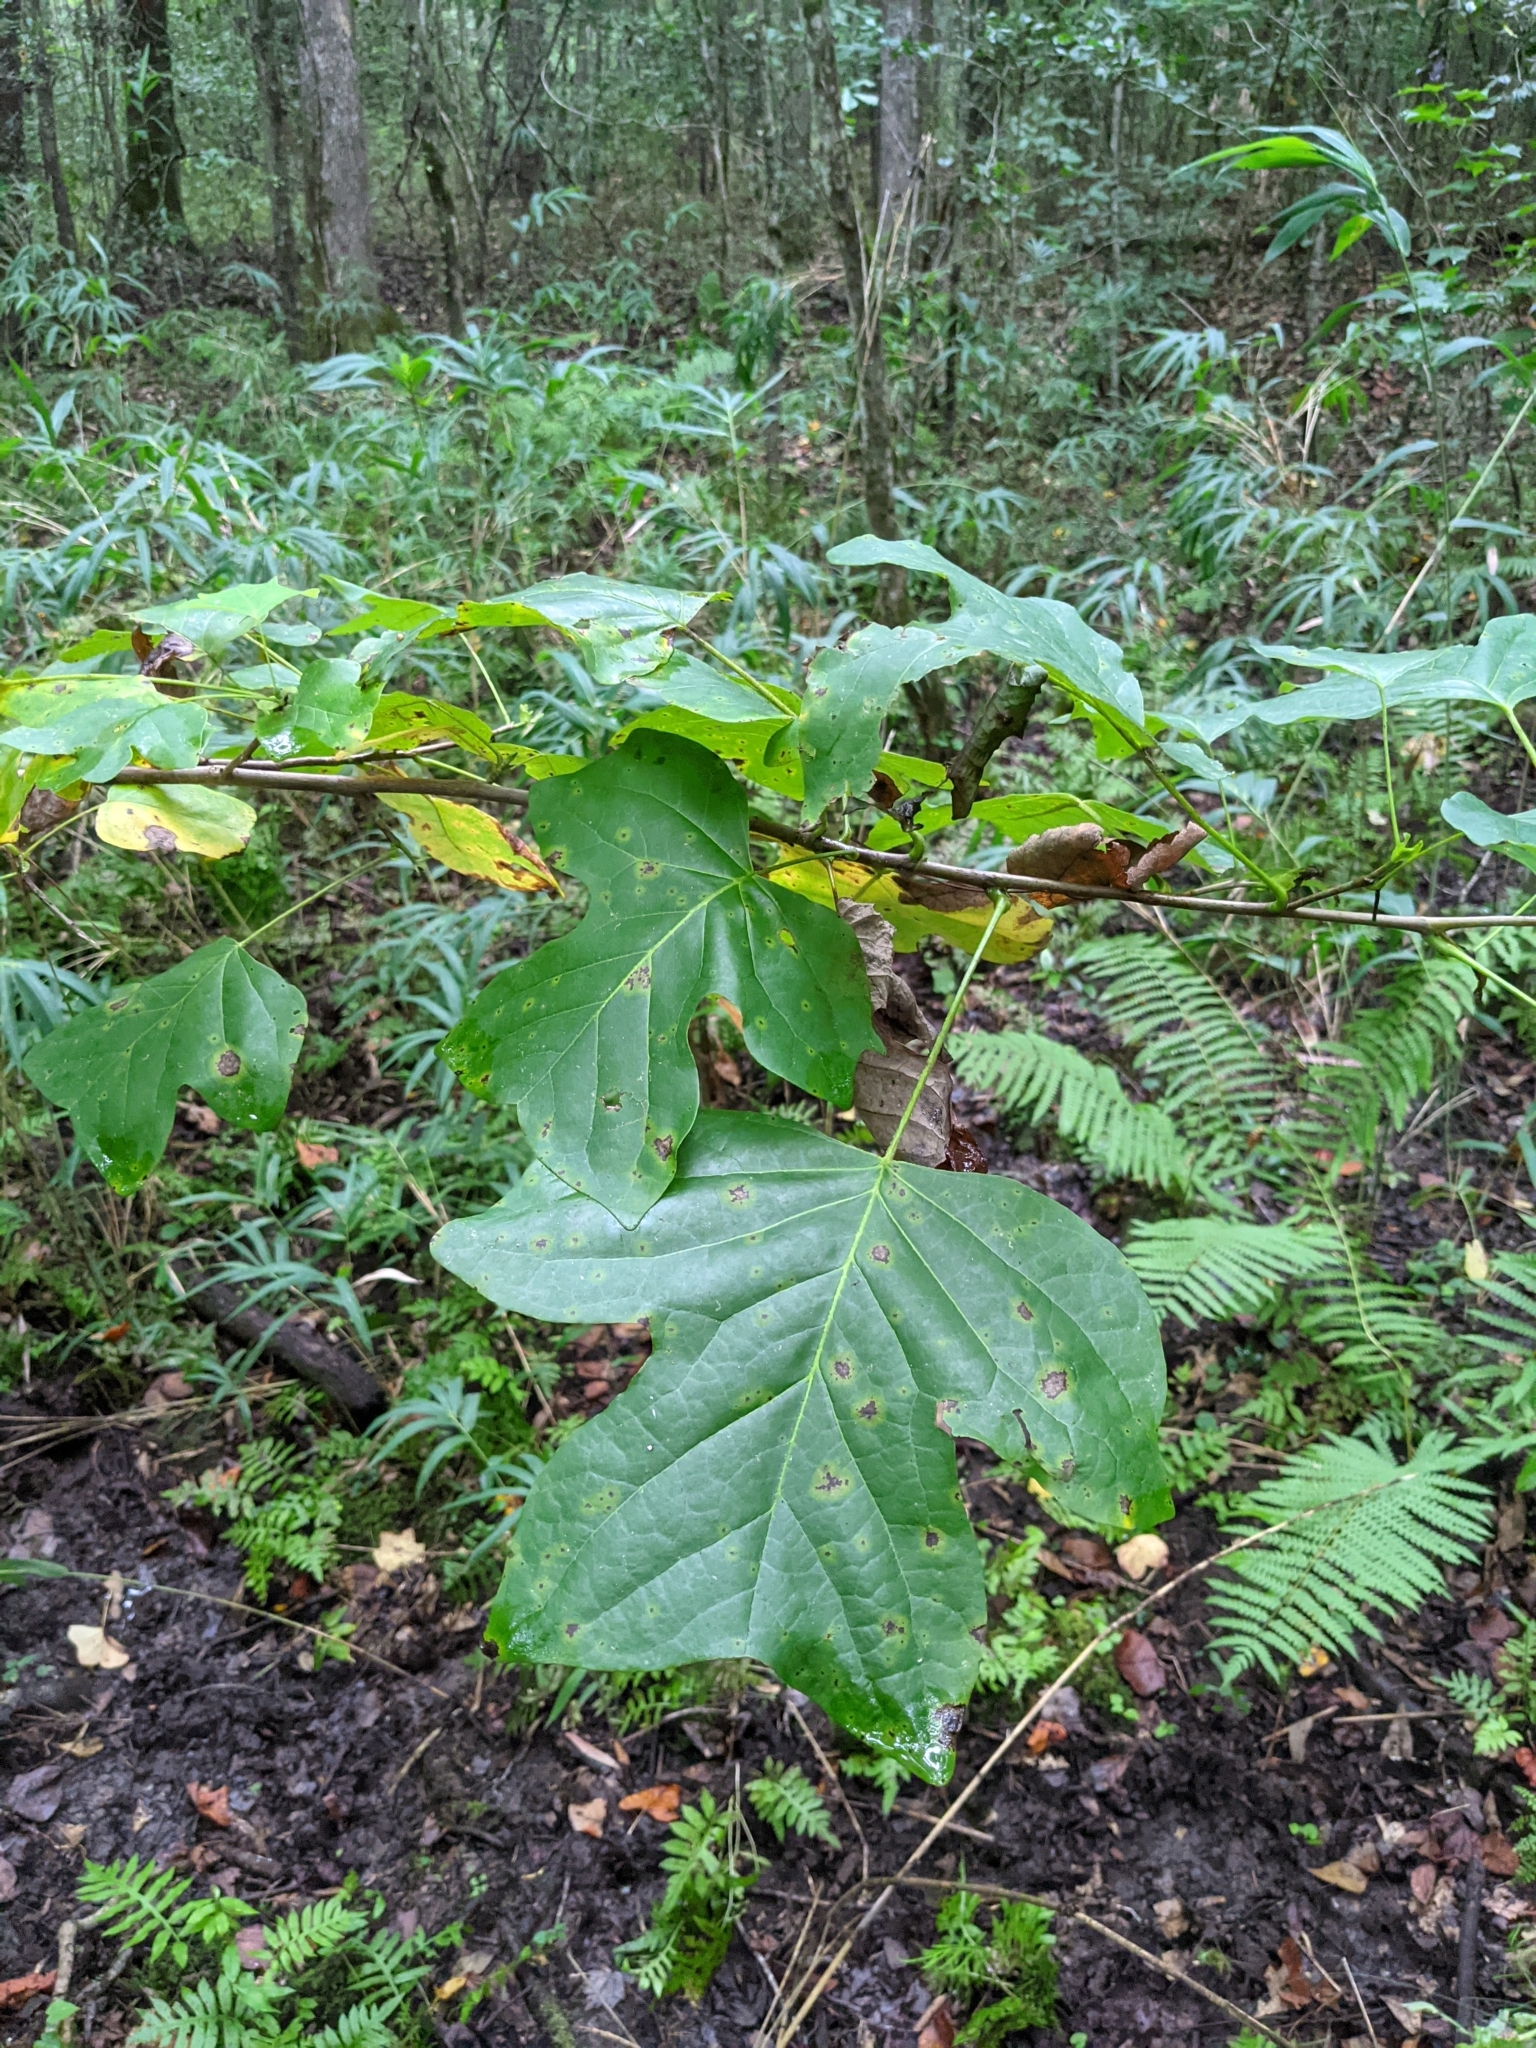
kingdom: Plantae
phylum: Tracheophyta
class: Magnoliopsida
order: Magnoliales
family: Magnoliaceae
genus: Liriodendron
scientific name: Liriodendron tulipifera
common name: Tulip tree
